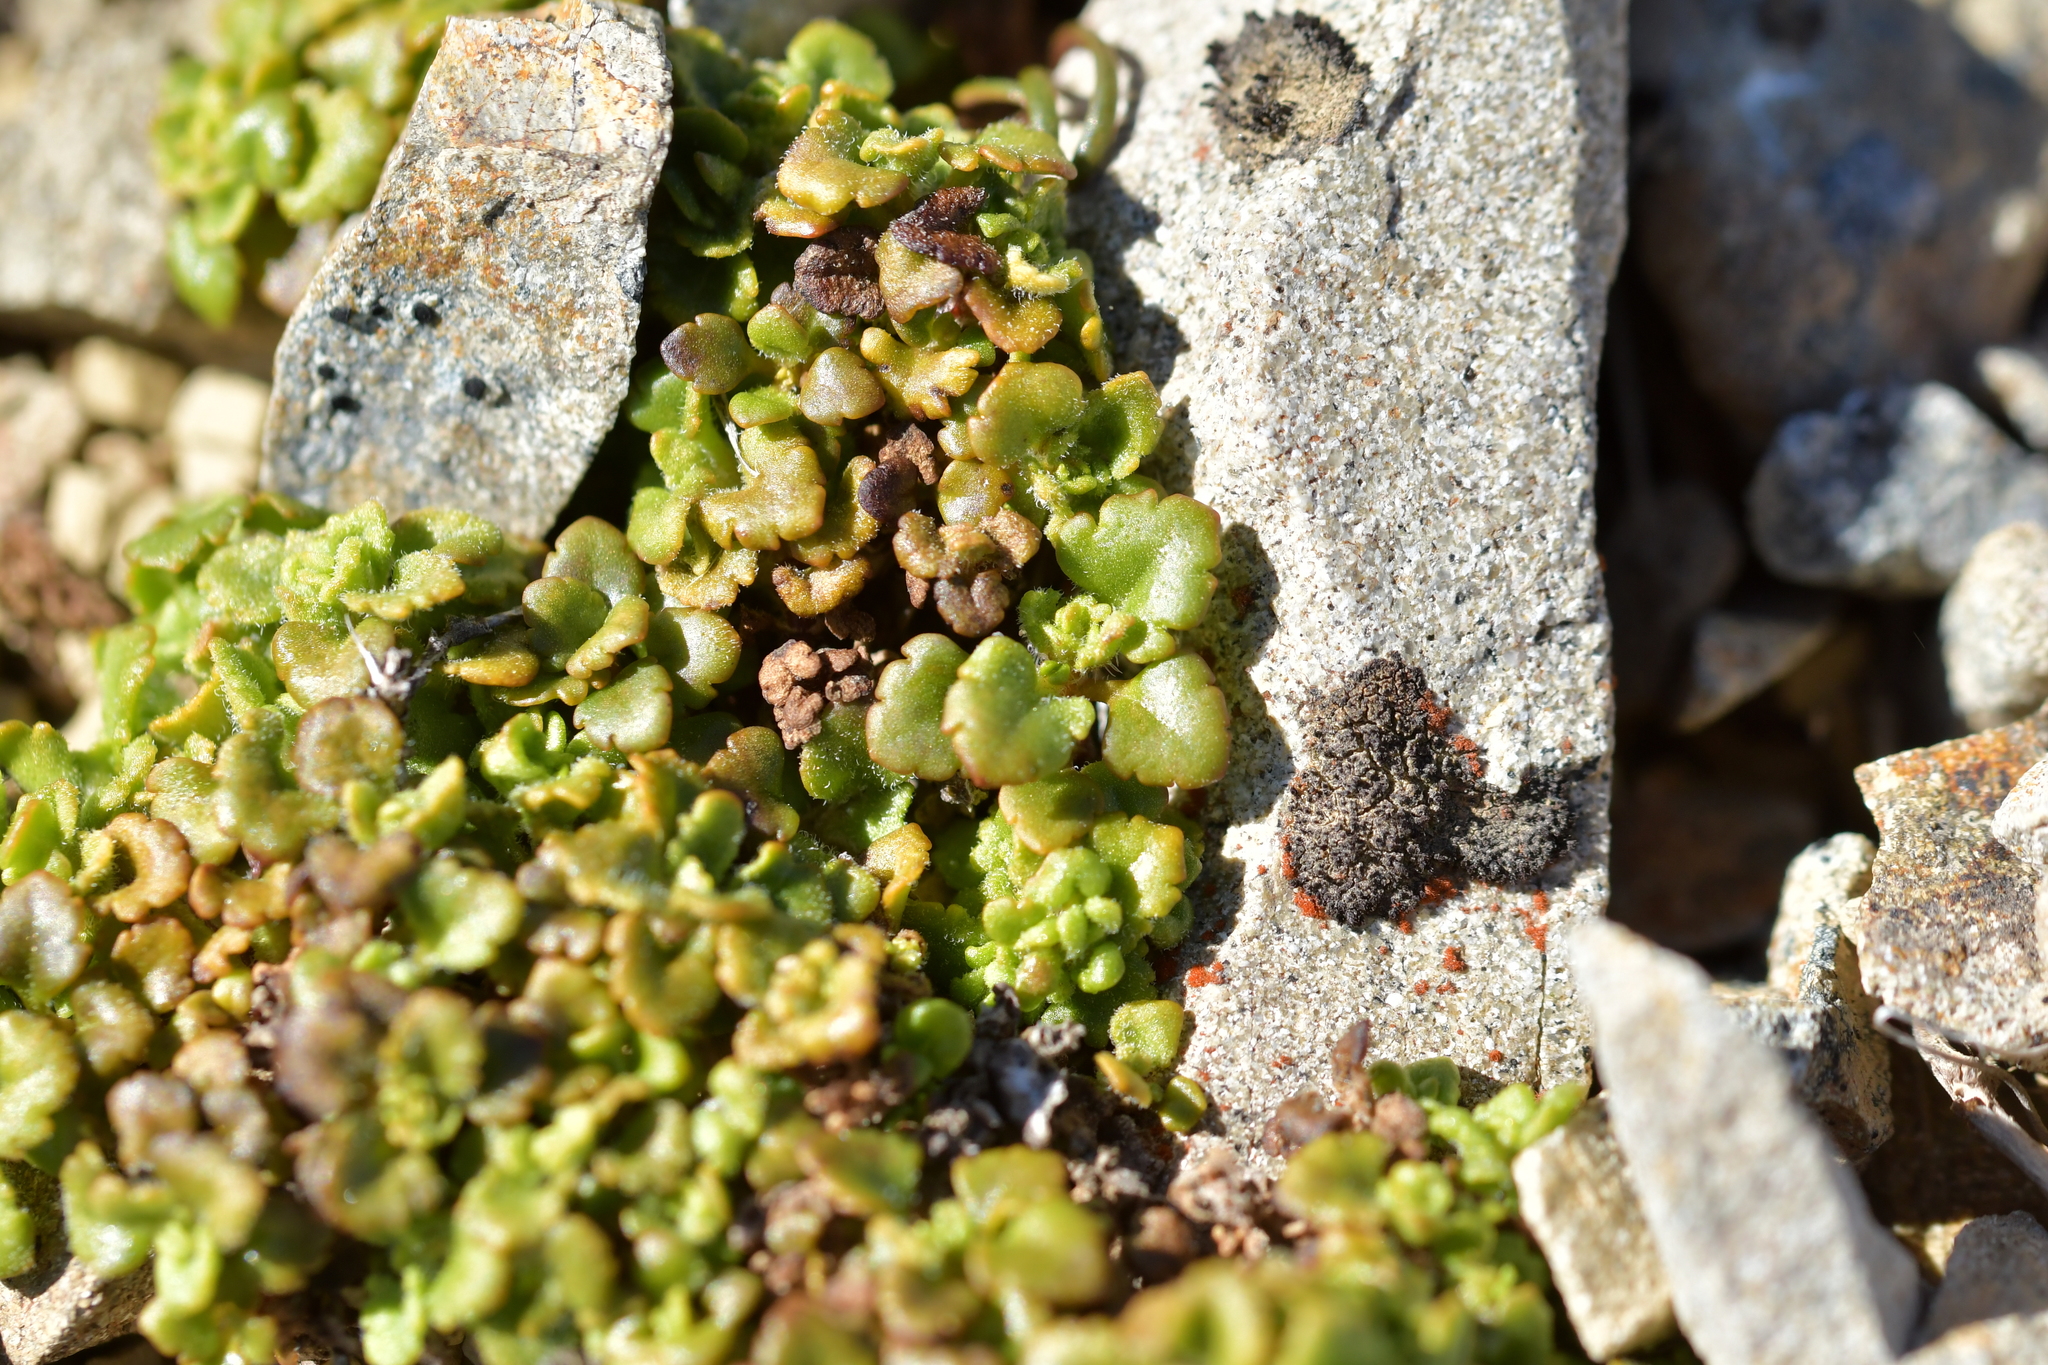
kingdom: Plantae
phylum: Tracheophyta
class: Magnoliopsida
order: Lamiales
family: Plantaginaceae
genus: Veronica
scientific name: Veronica spathulata
